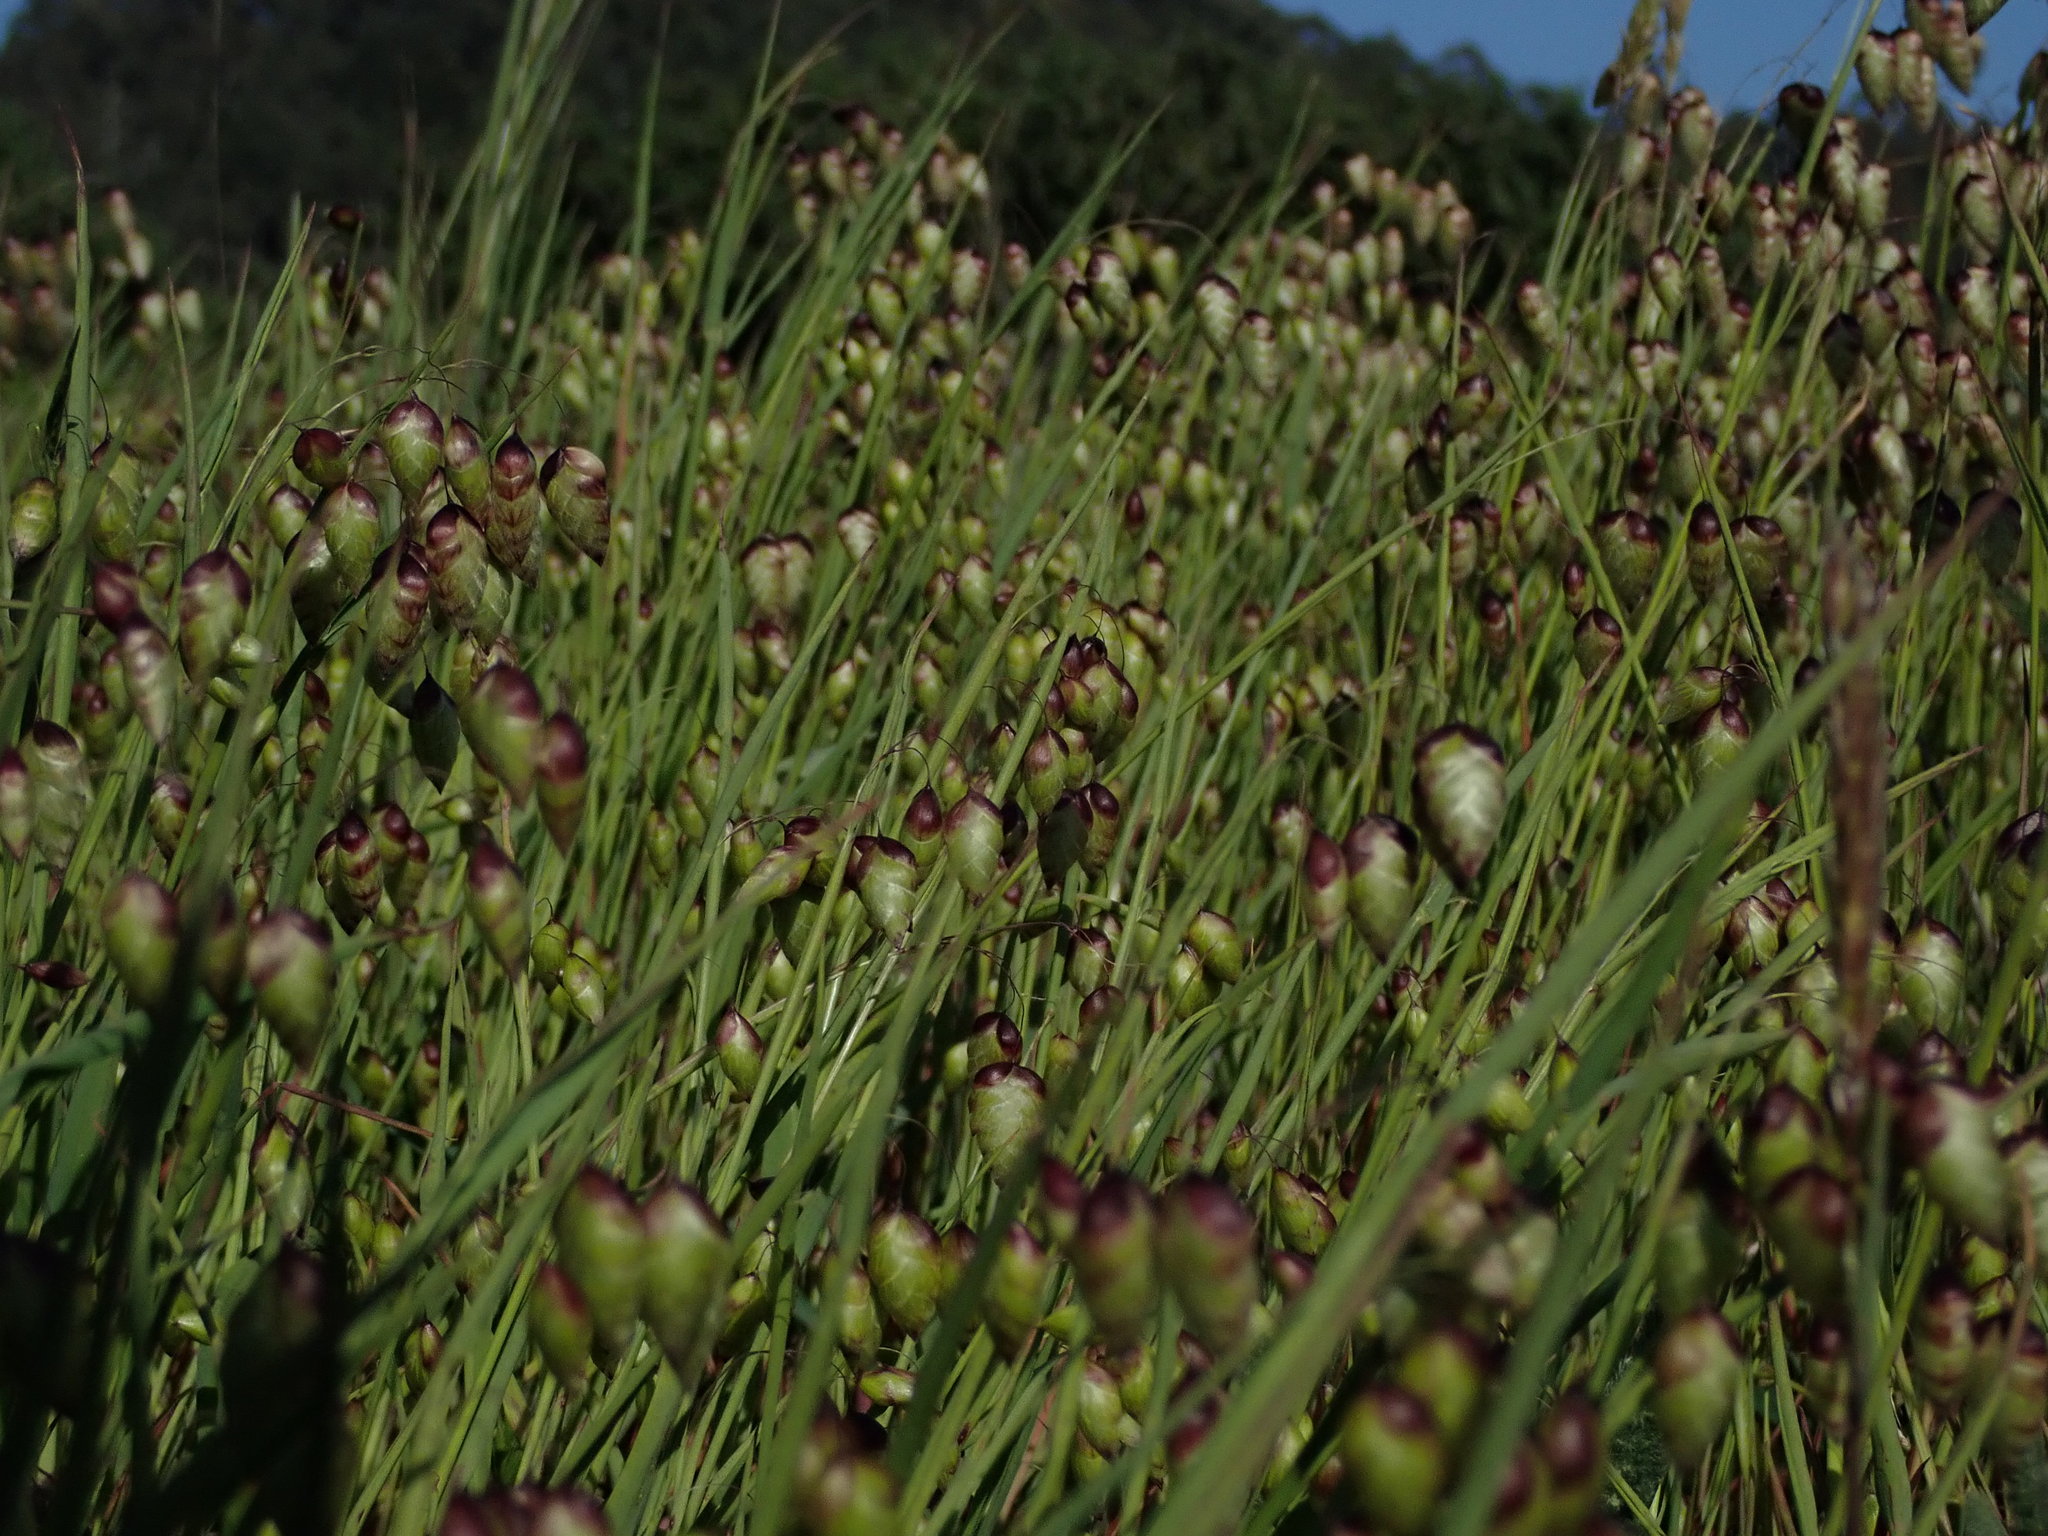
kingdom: Plantae
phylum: Tracheophyta
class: Liliopsida
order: Poales
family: Poaceae
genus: Briza
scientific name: Briza maxima
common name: Big quakinggrass
